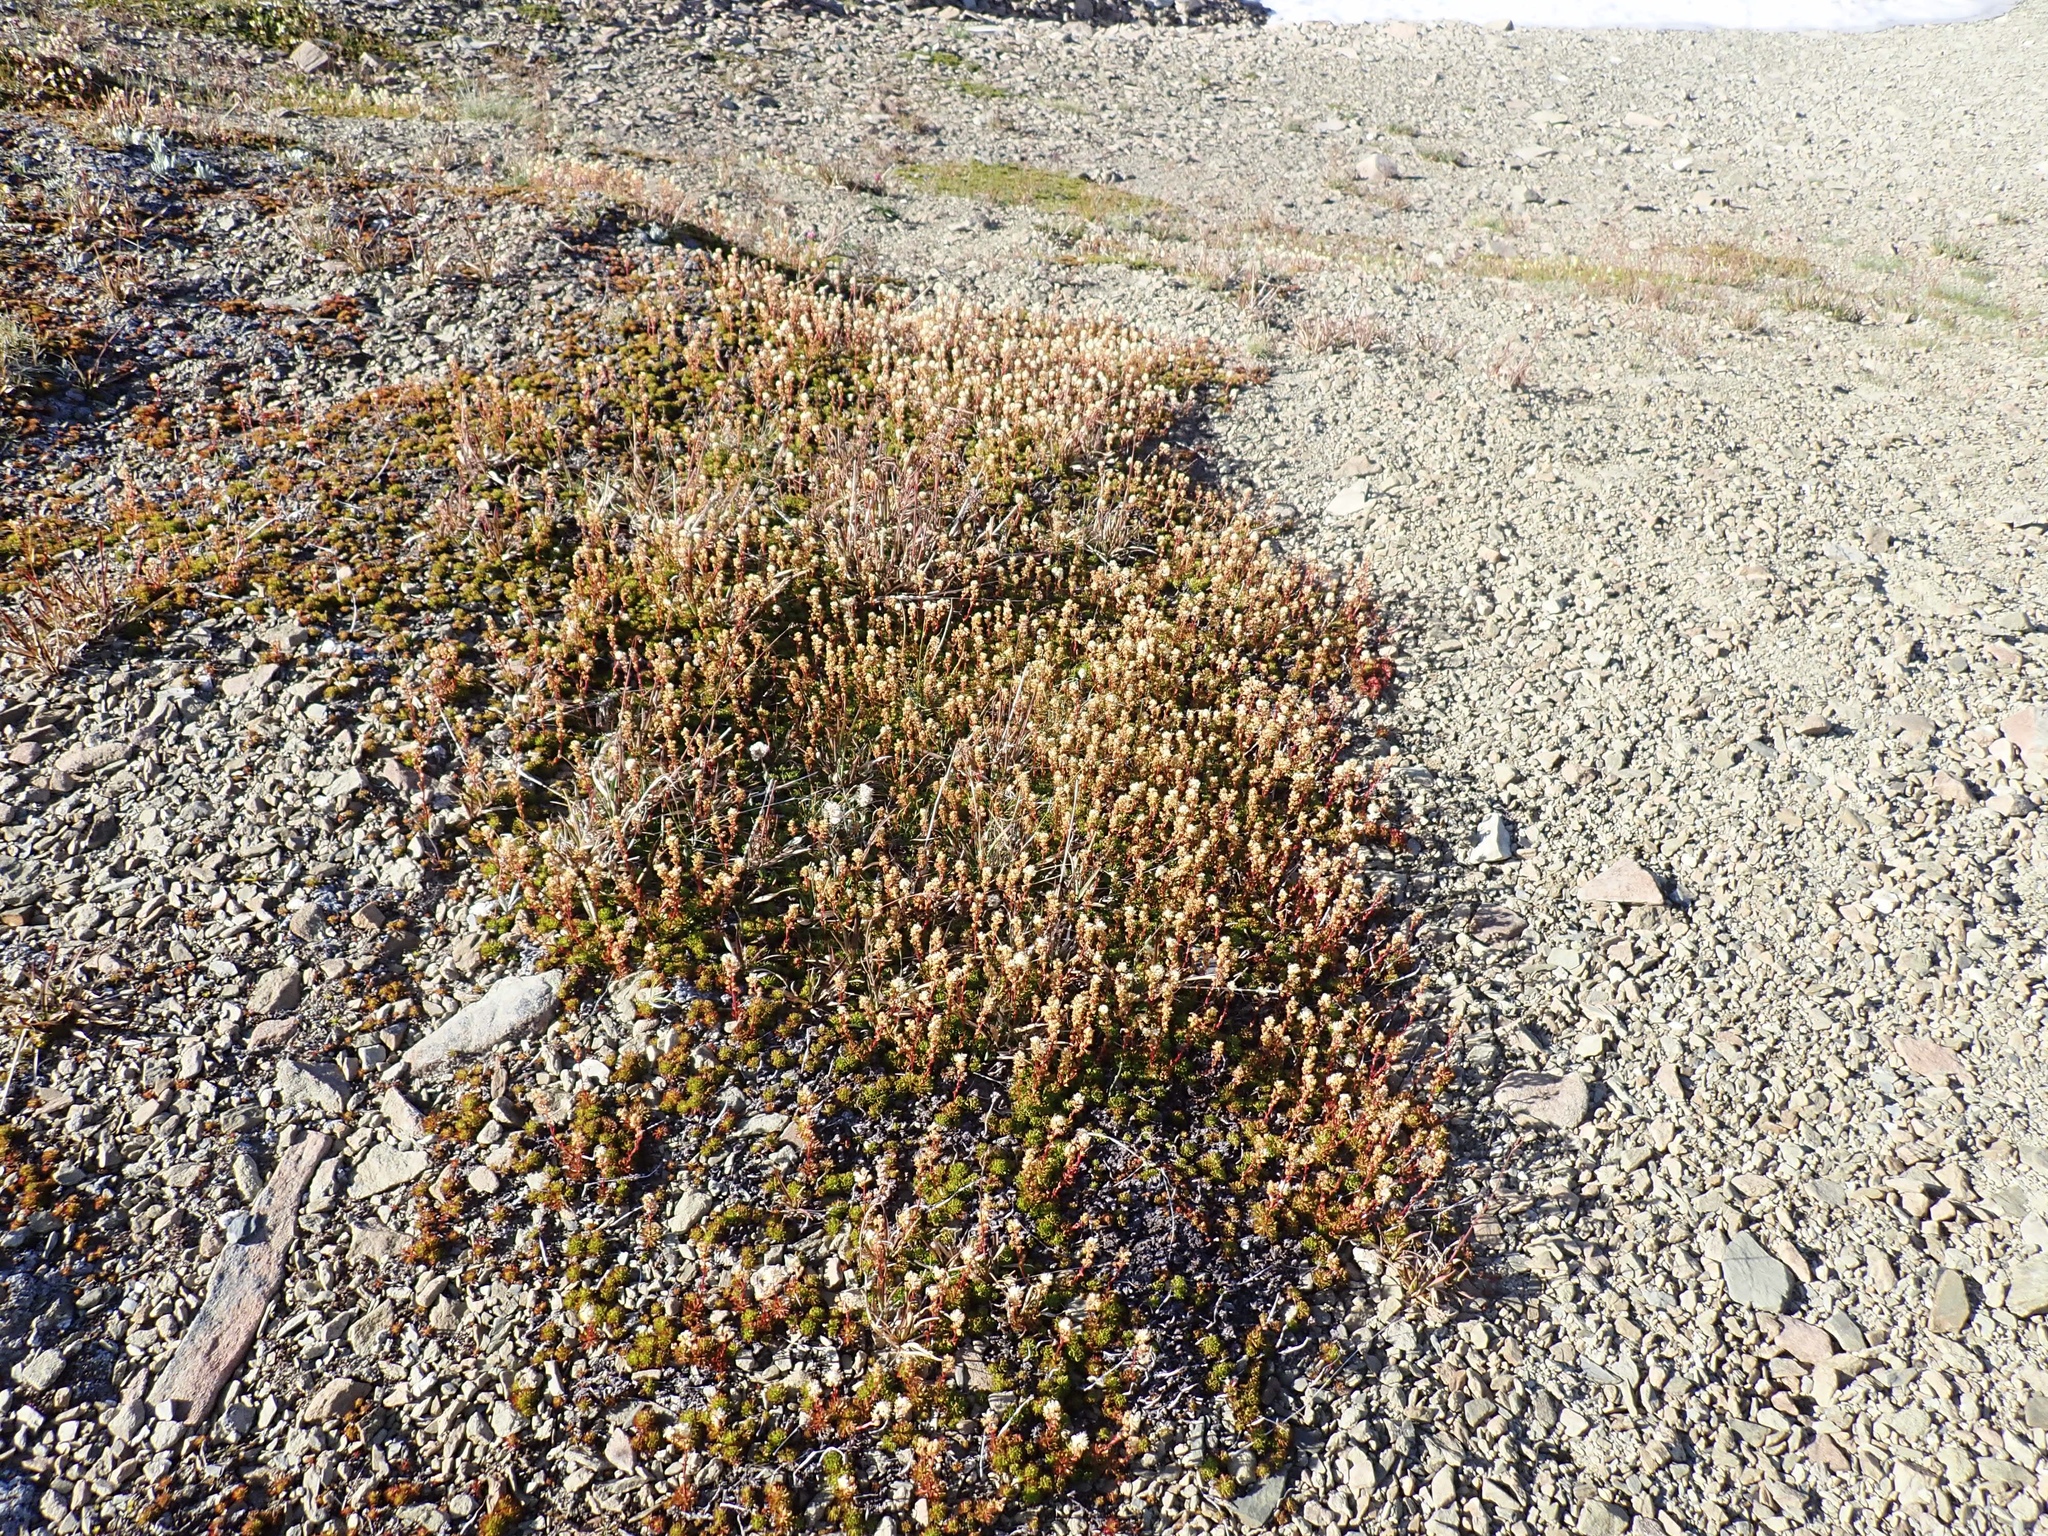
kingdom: Plantae
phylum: Tracheophyta
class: Magnoliopsida
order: Rosales
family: Rosaceae
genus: Luetkea
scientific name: Luetkea pectinata
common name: Partridgefoot
